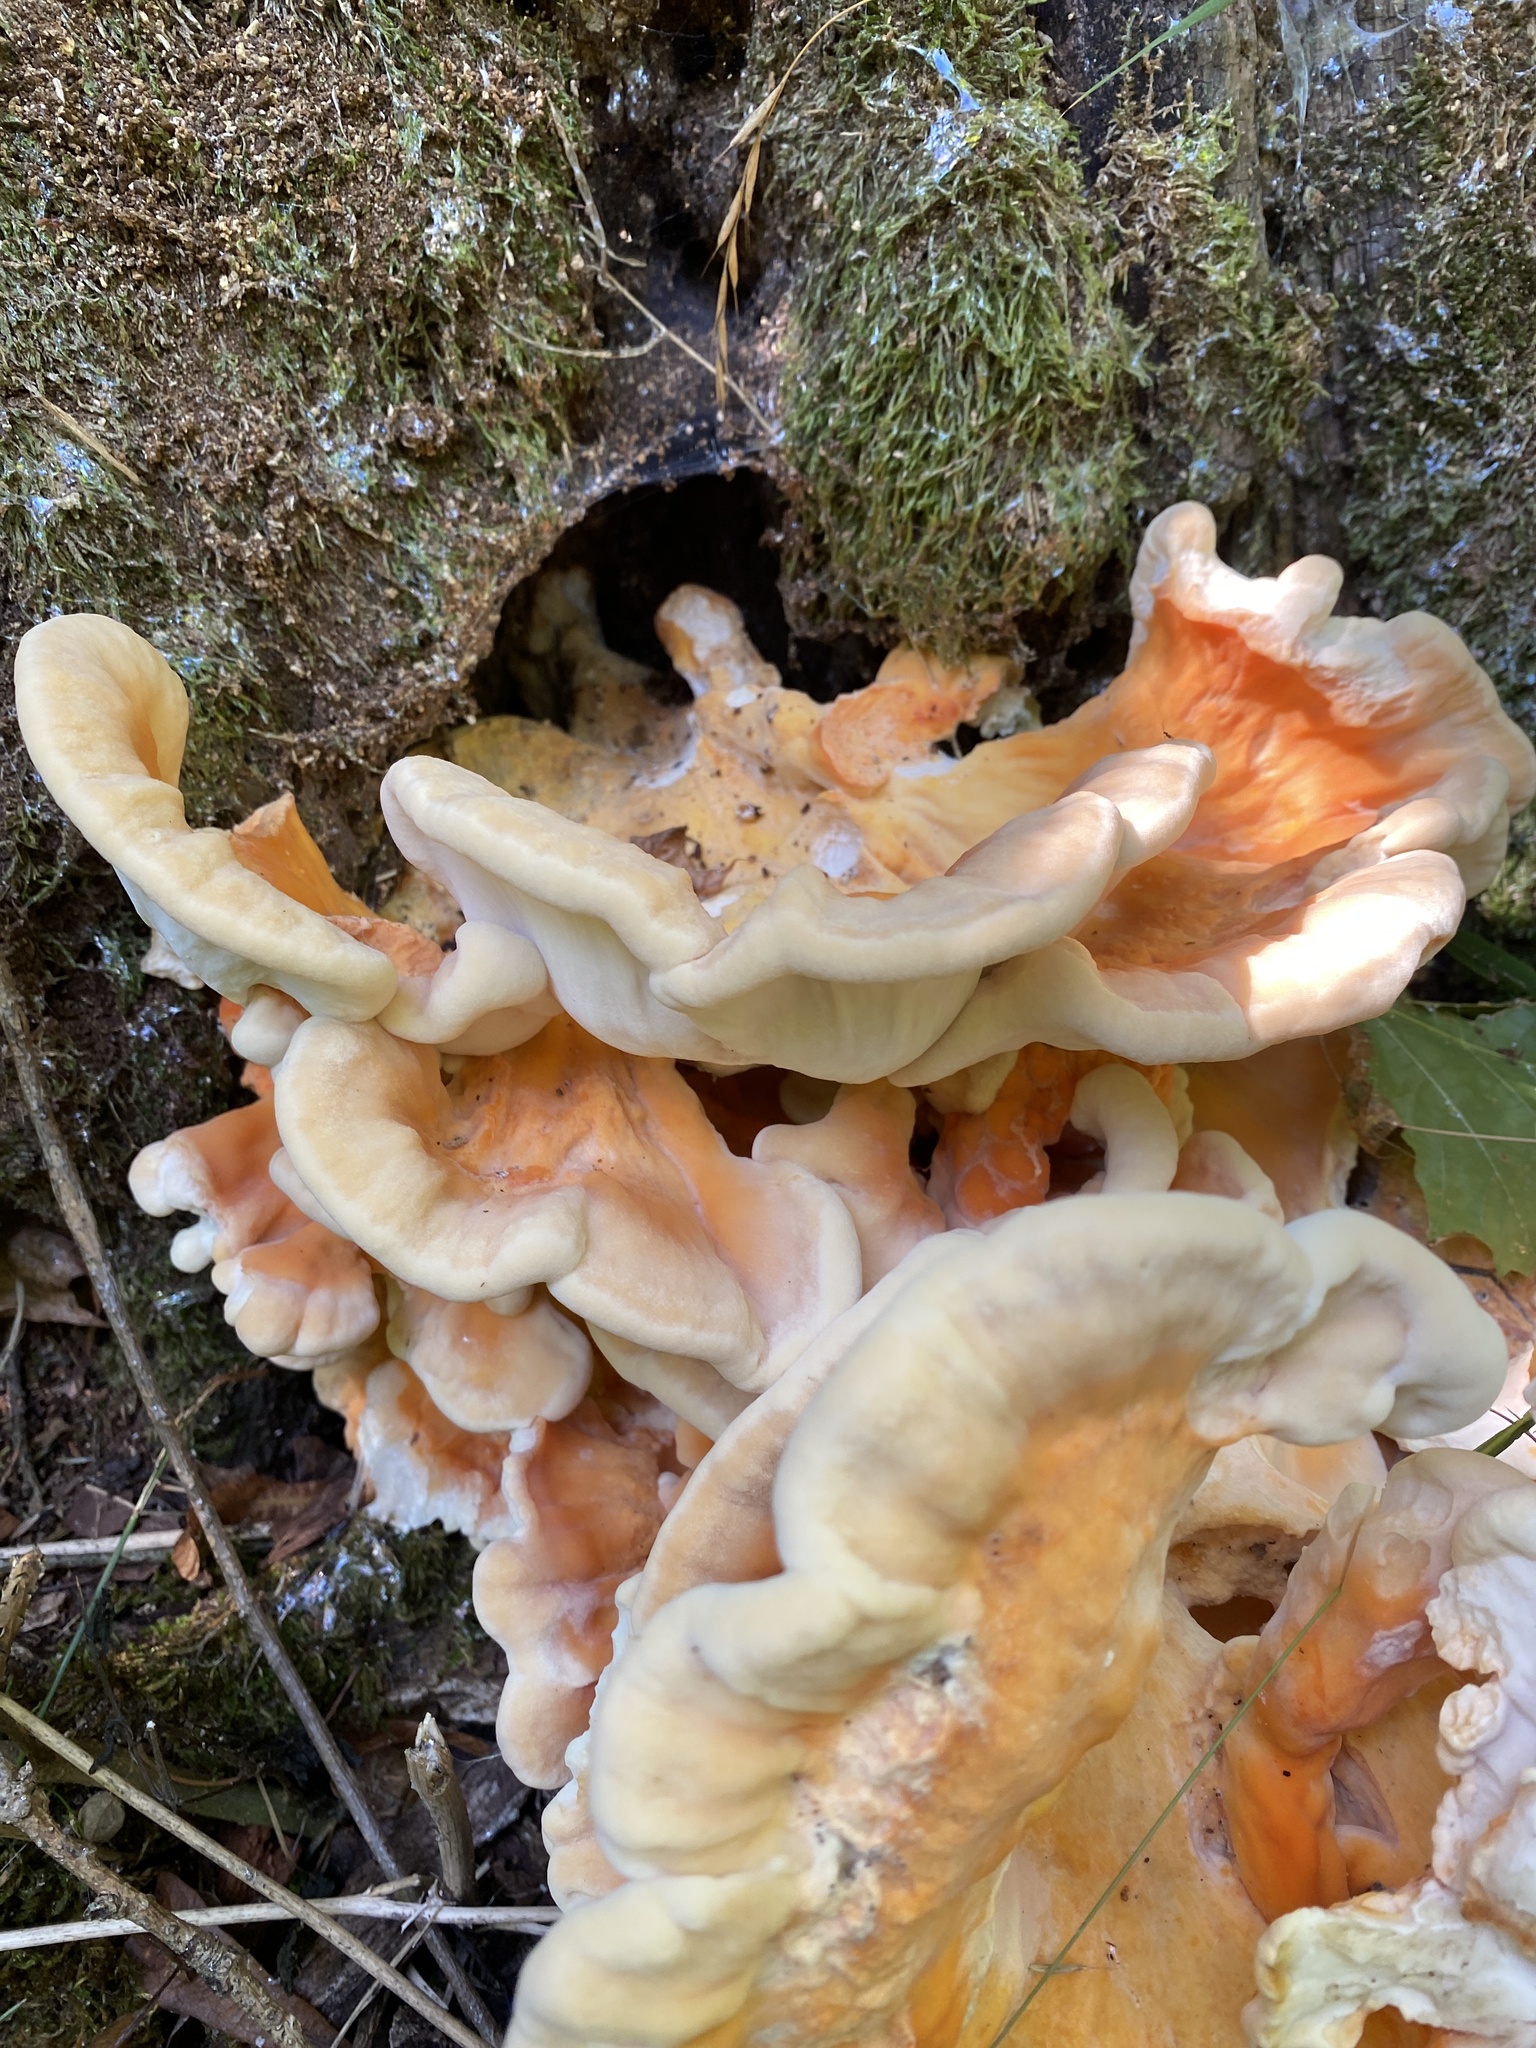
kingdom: Fungi
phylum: Basidiomycota
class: Agaricomycetes
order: Polyporales
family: Laetiporaceae
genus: Laetiporus
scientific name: Laetiporus sulphureus
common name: Chicken of the woods
